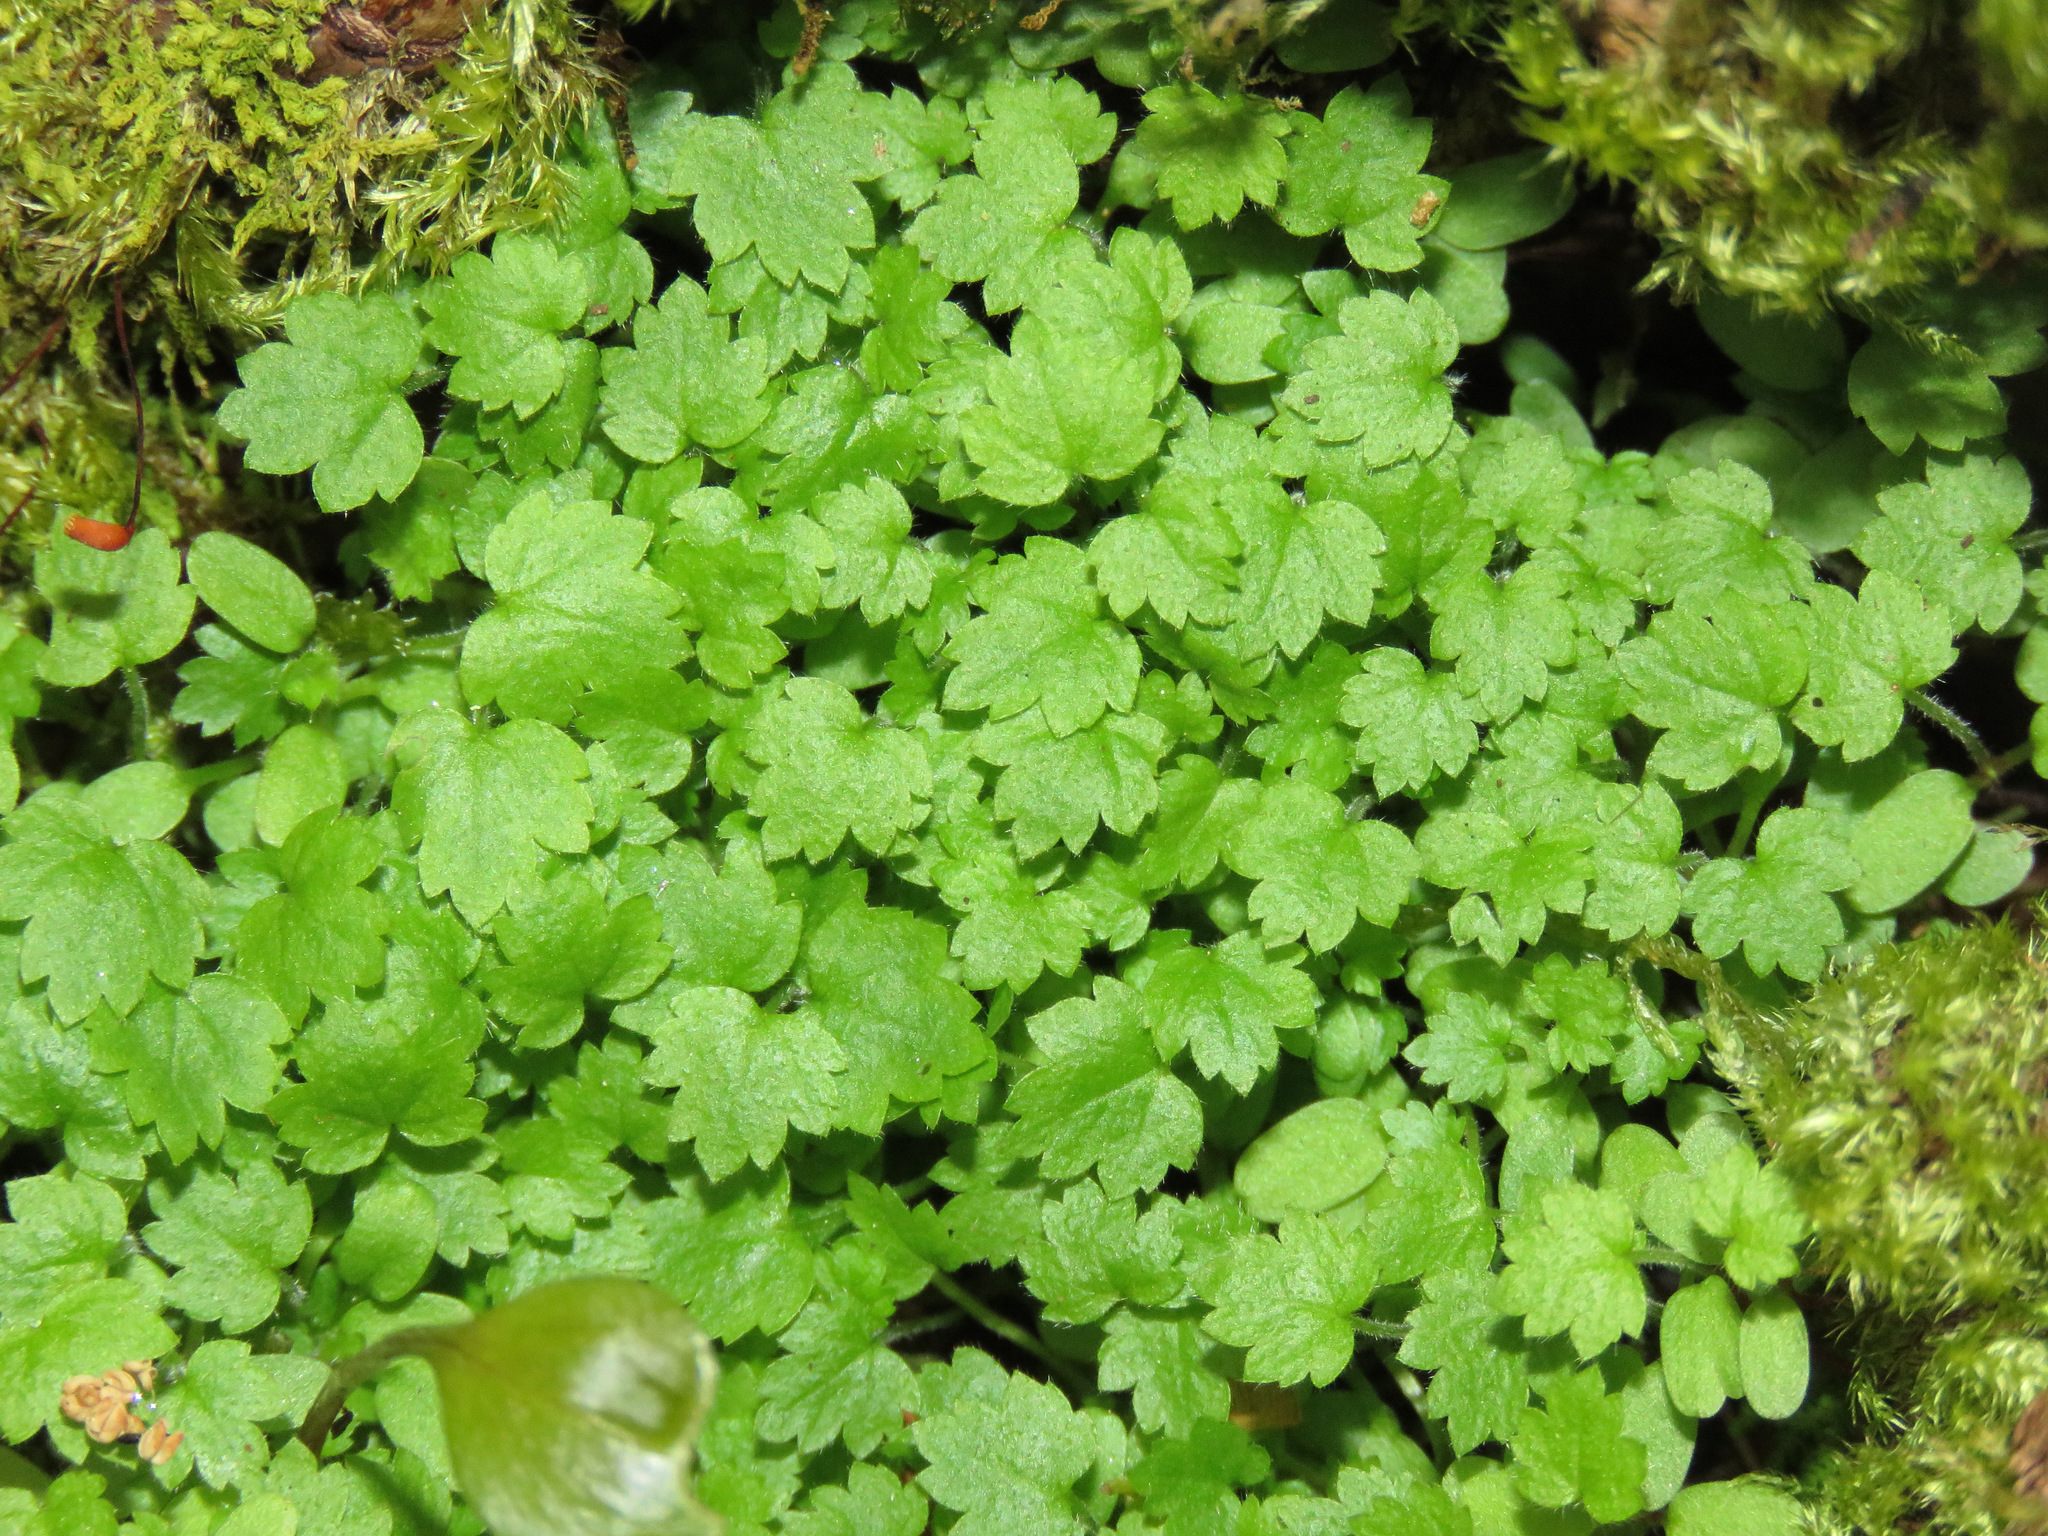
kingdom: Plantae
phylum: Tracheophyta
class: Magnoliopsida
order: Saxifragales
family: Saxifragaceae
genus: Boykinia
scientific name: Boykinia occidentalis
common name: Coast boykinia
